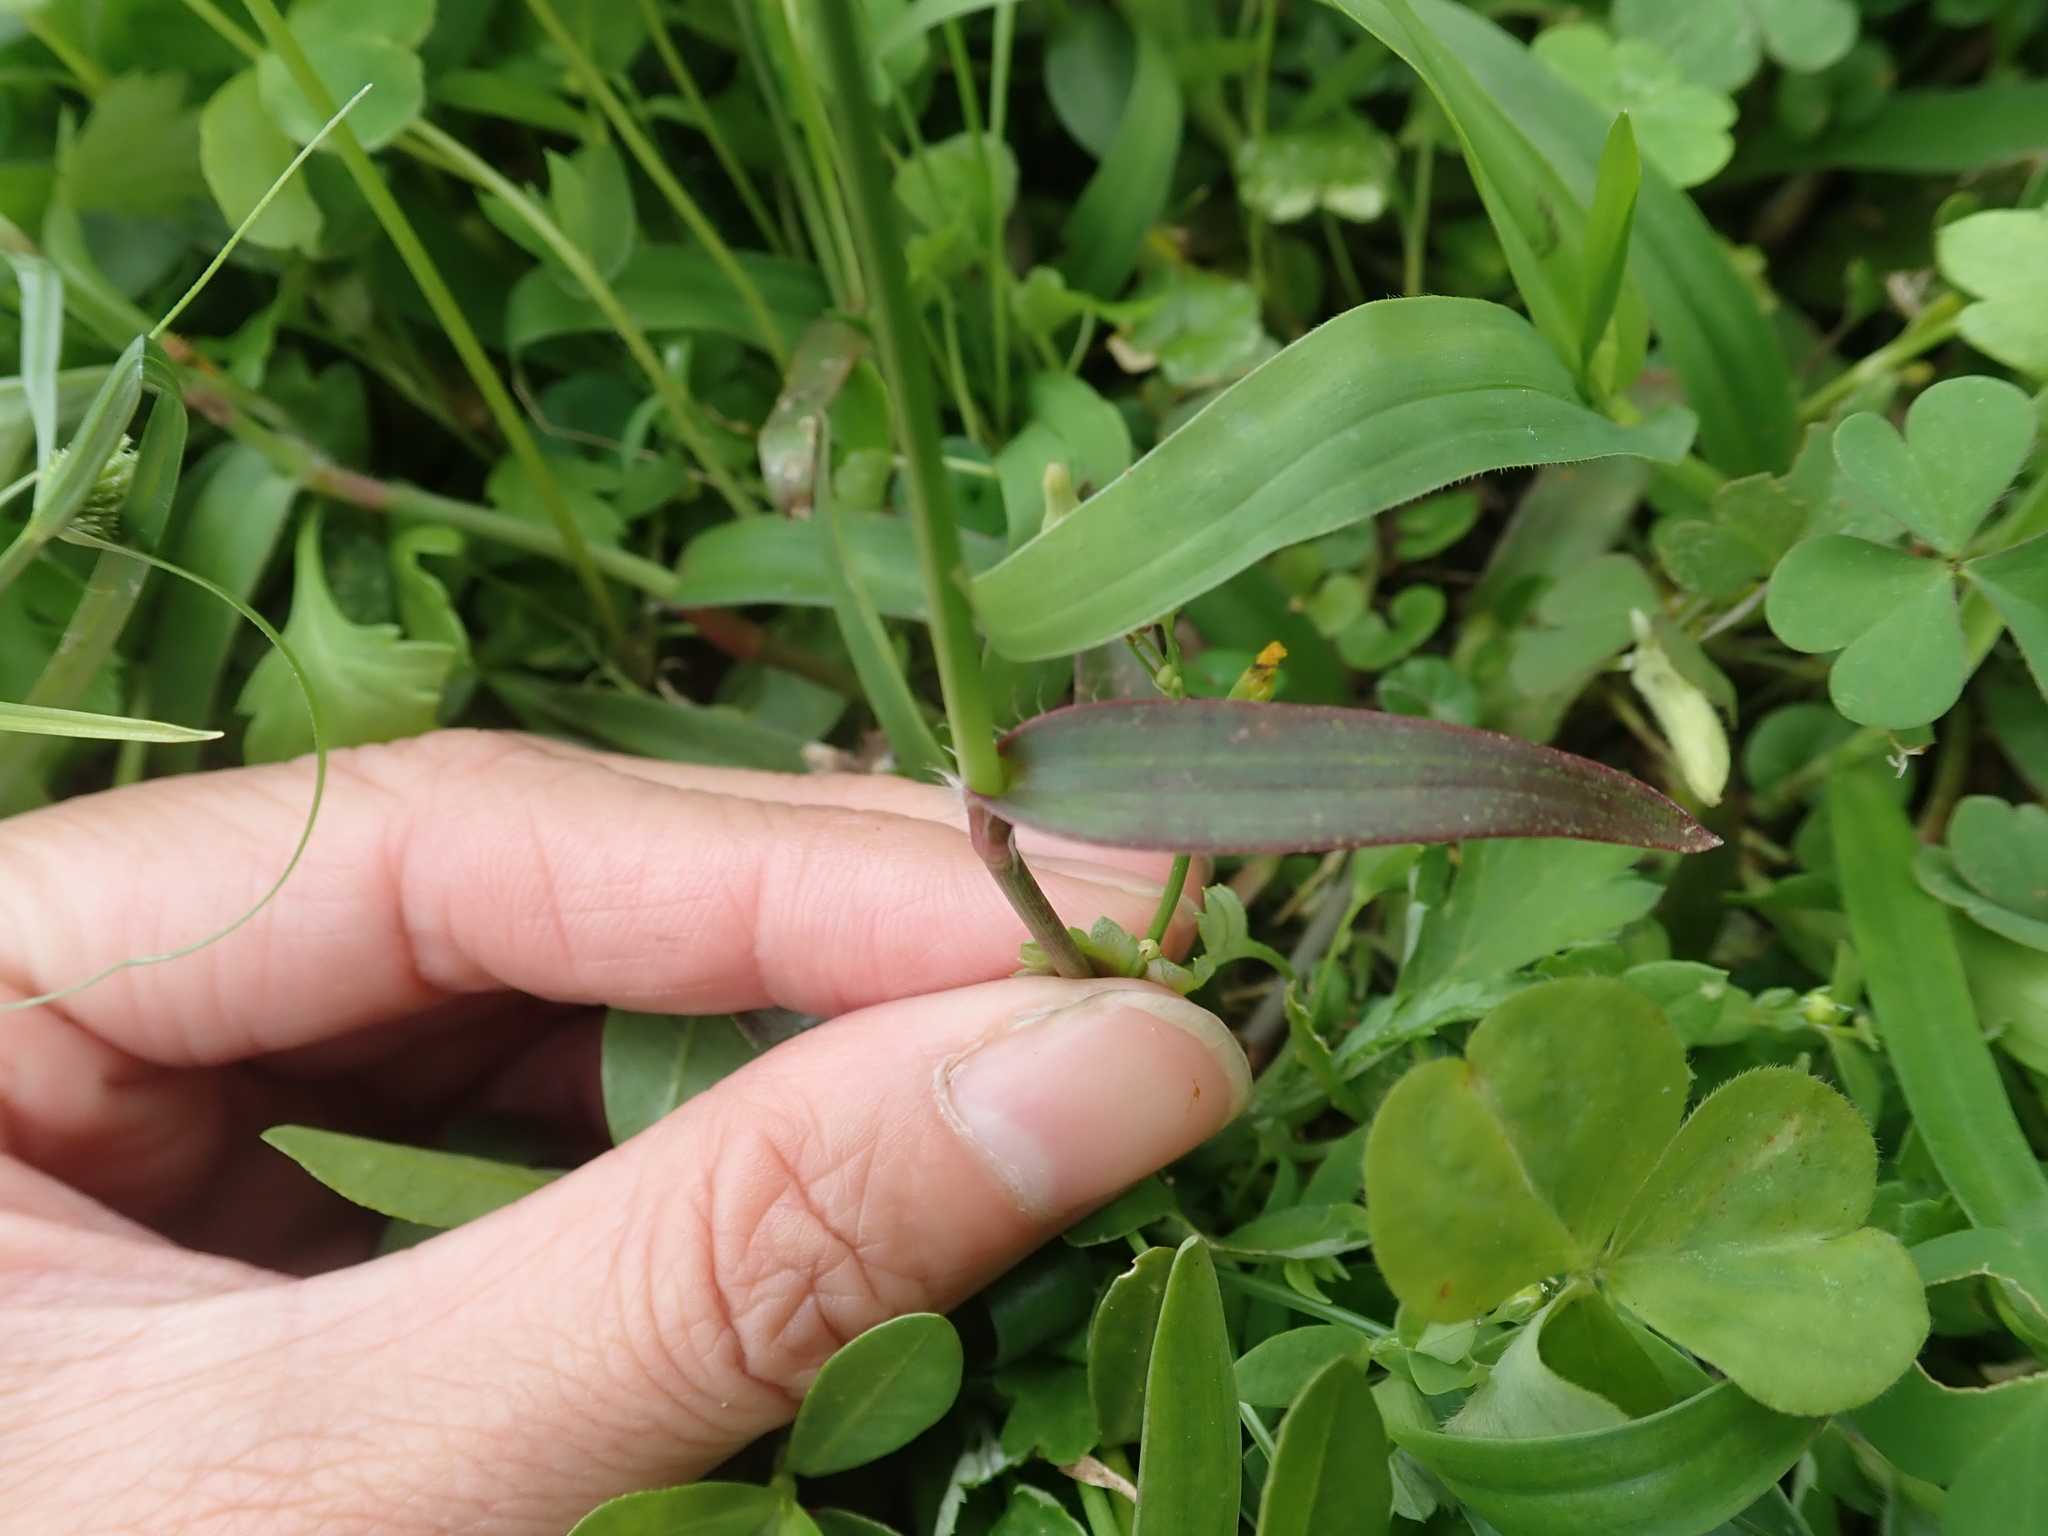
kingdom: Plantae
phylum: Tracheophyta
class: Liliopsida
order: Commelinales
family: Commelinaceae
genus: Murdannia
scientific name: Murdannia loriformis
